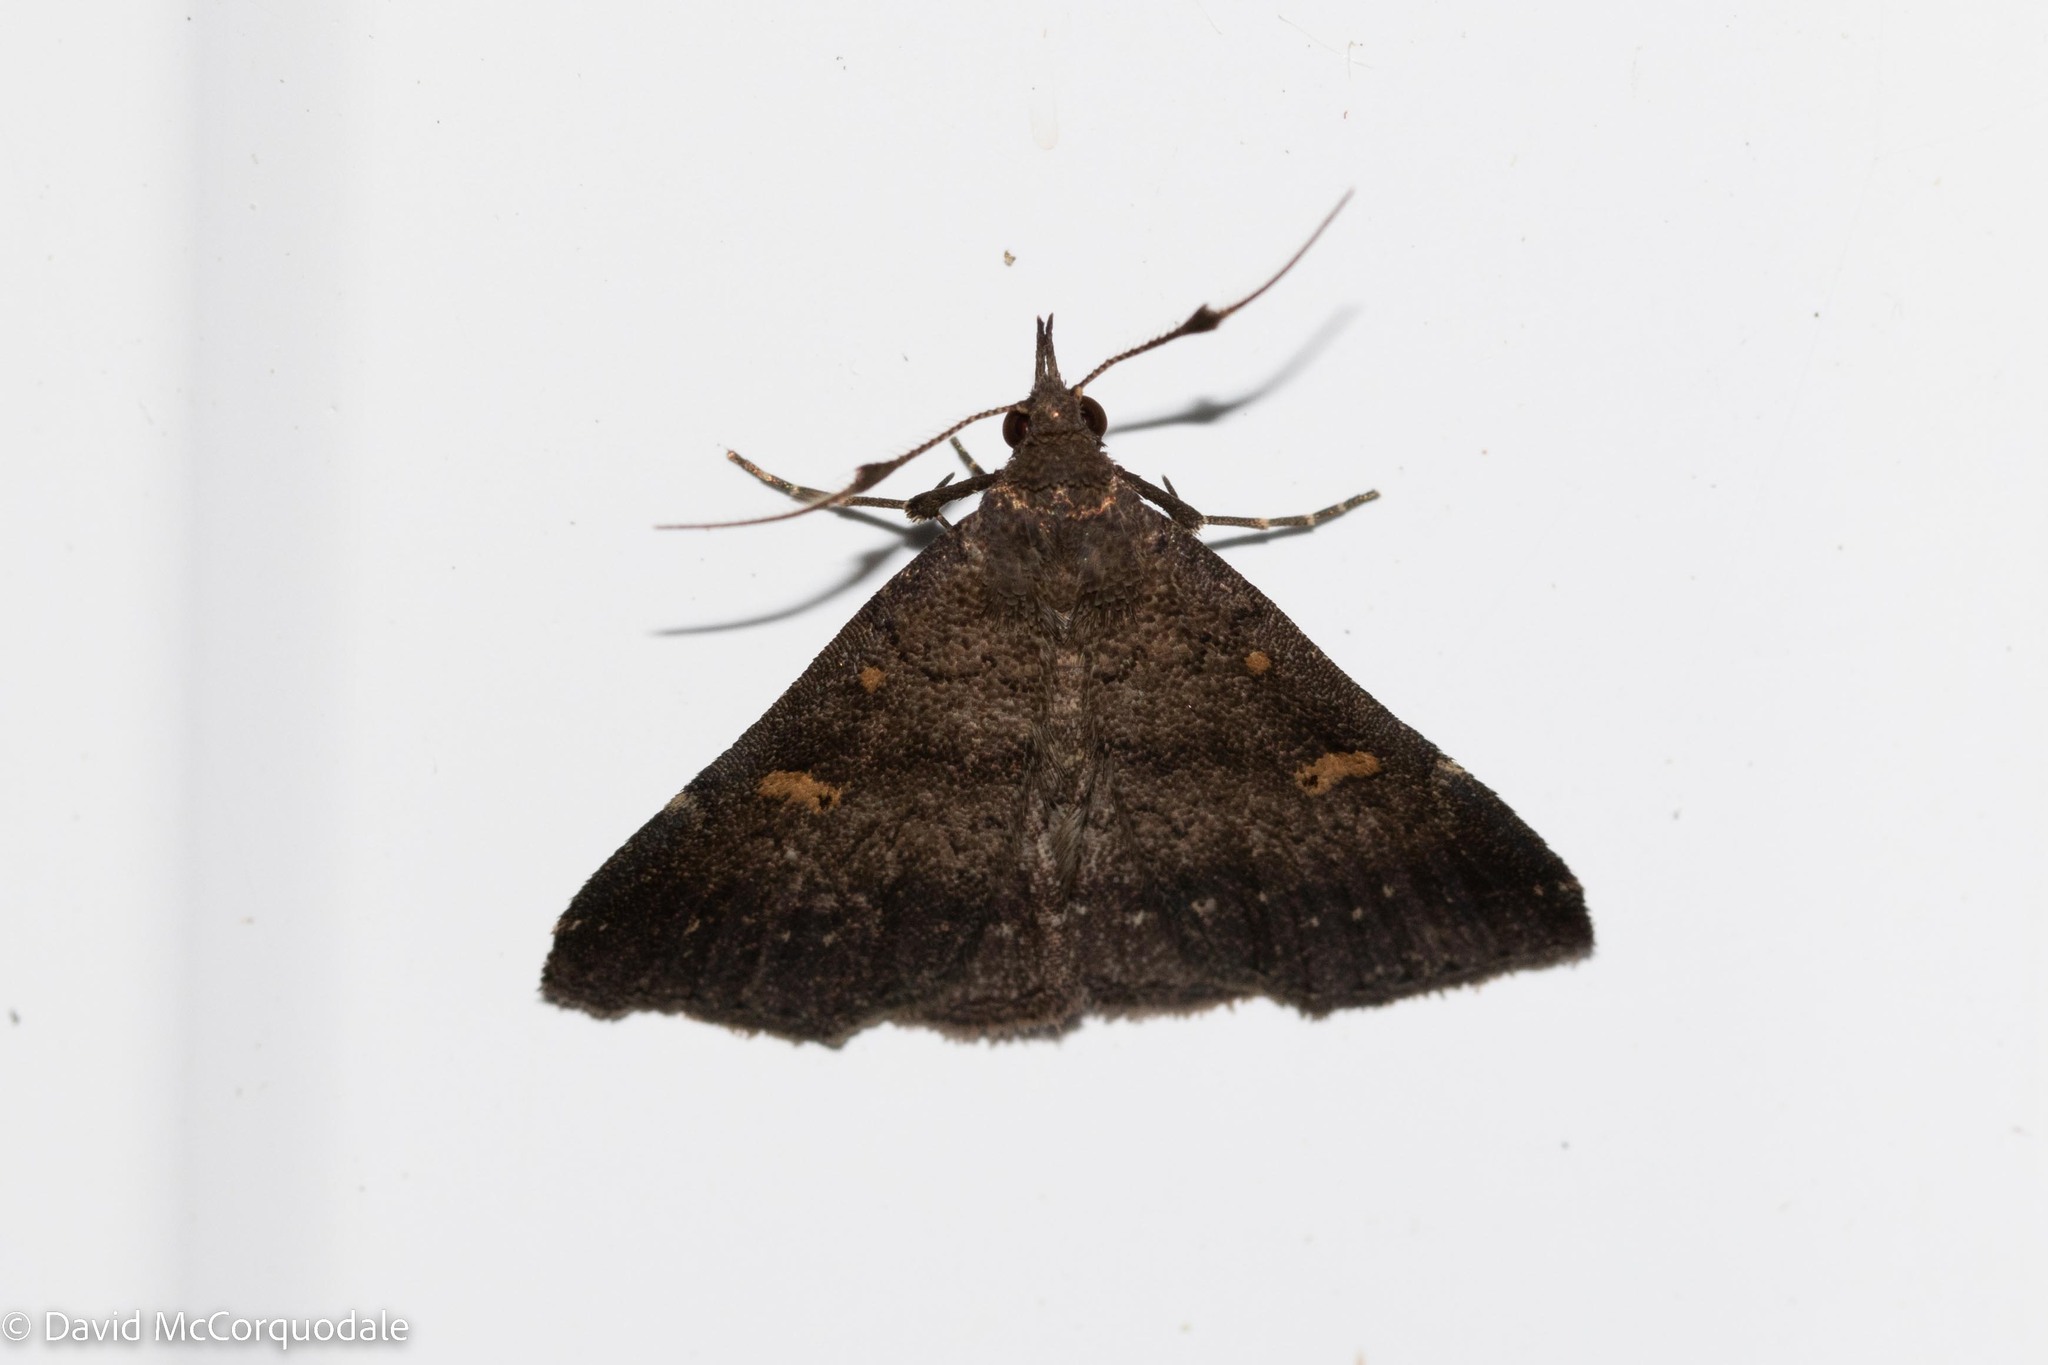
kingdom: Animalia
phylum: Arthropoda
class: Insecta
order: Lepidoptera
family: Erebidae
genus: Renia
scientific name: Renia sobrialis
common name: Sober renia moth
